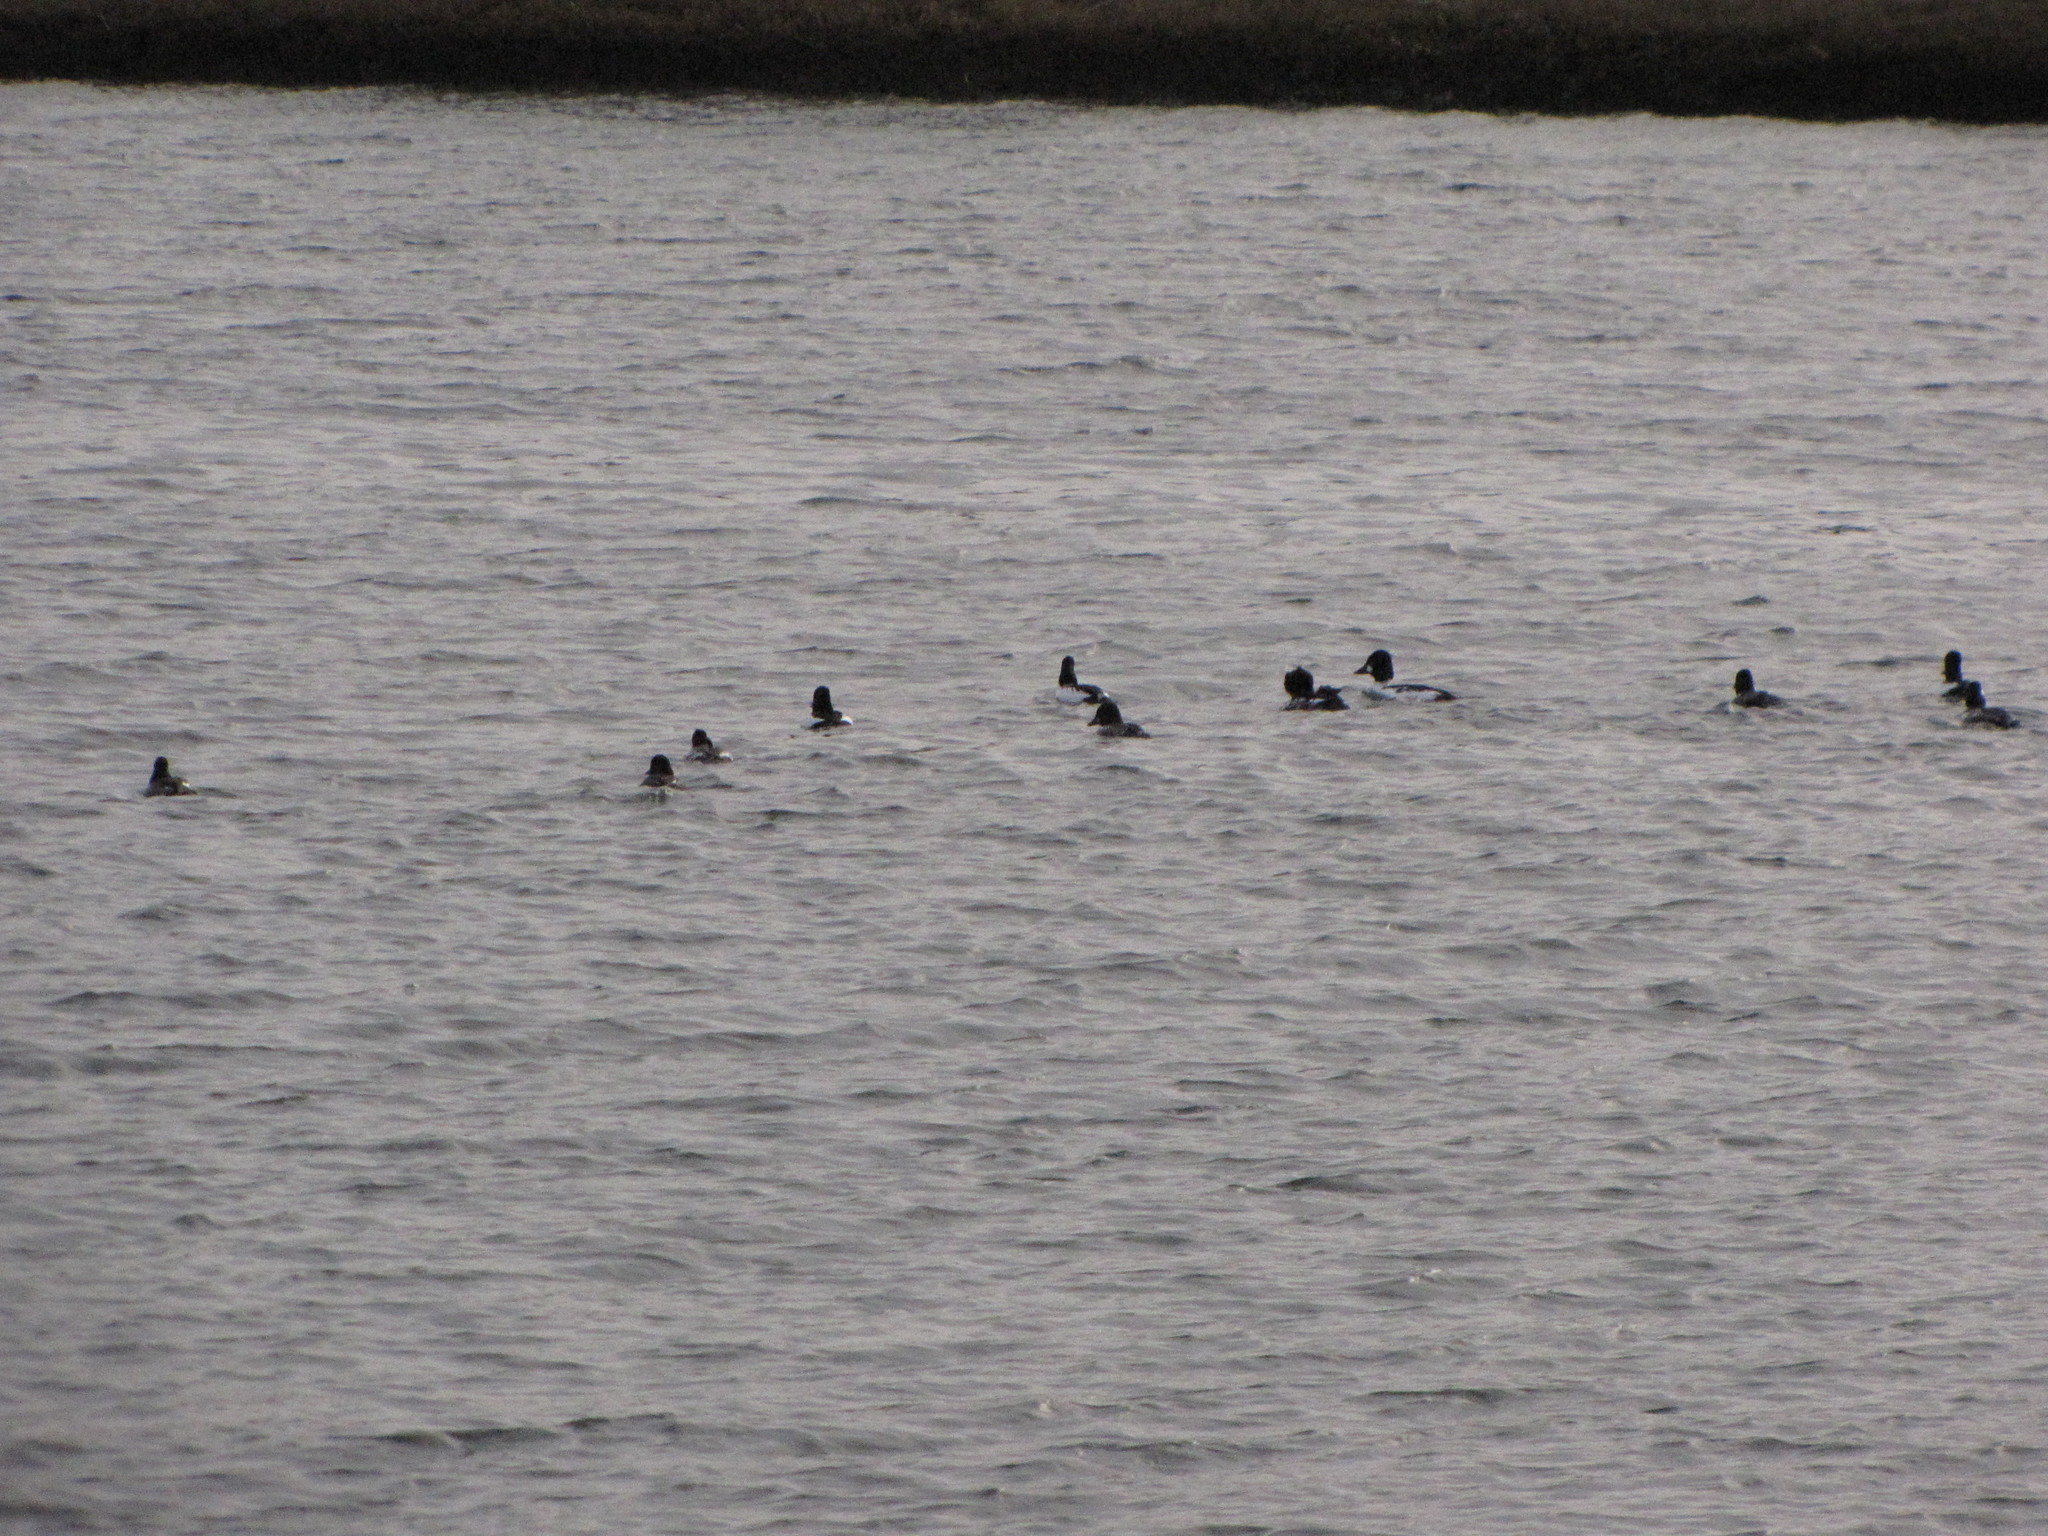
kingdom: Animalia
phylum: Chordata
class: Aves
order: Anseriformes
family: Anatidae
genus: Bucephala
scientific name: Bucephala clangula
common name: Common goldeneye
